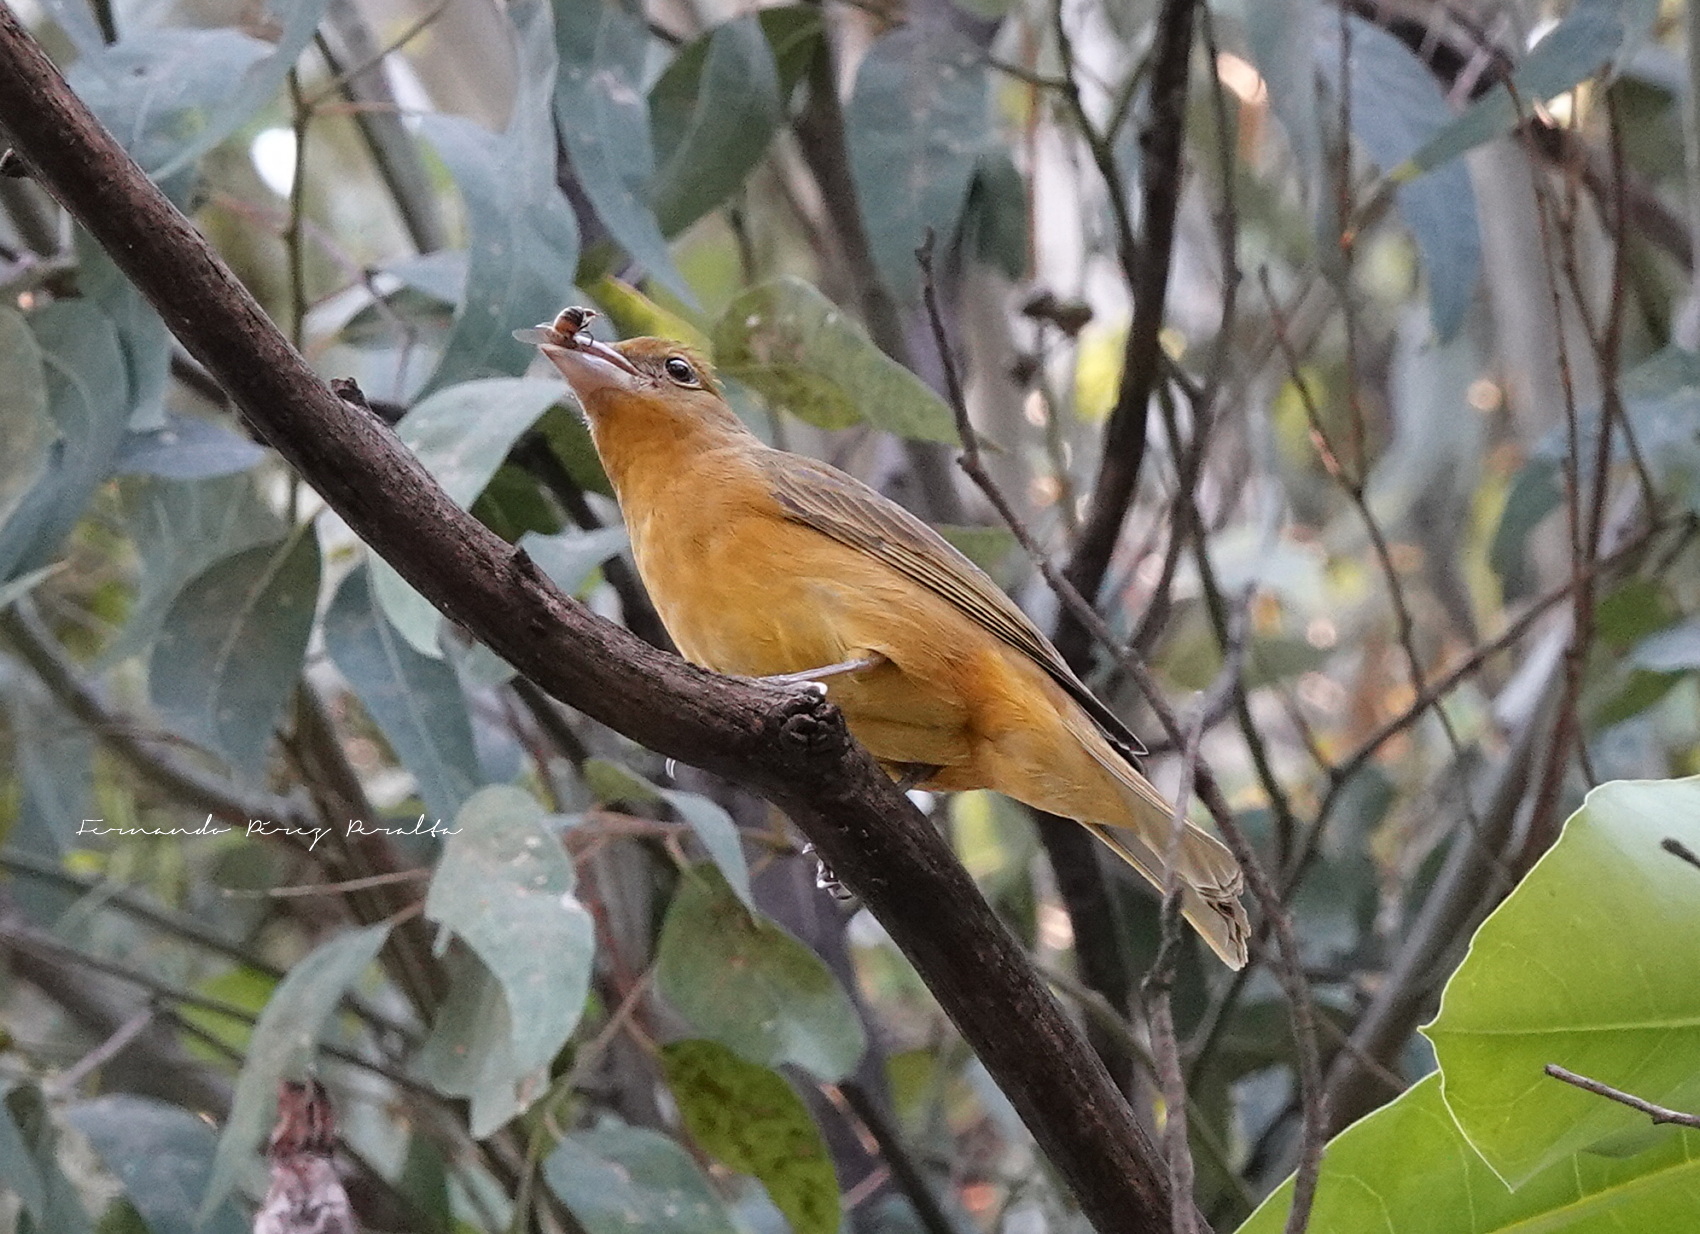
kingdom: Animalia
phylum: Chordata
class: Aves
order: Passeriformes
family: Cardinalidae
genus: Piranga
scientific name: Piranga rubra
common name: Summer tanager
